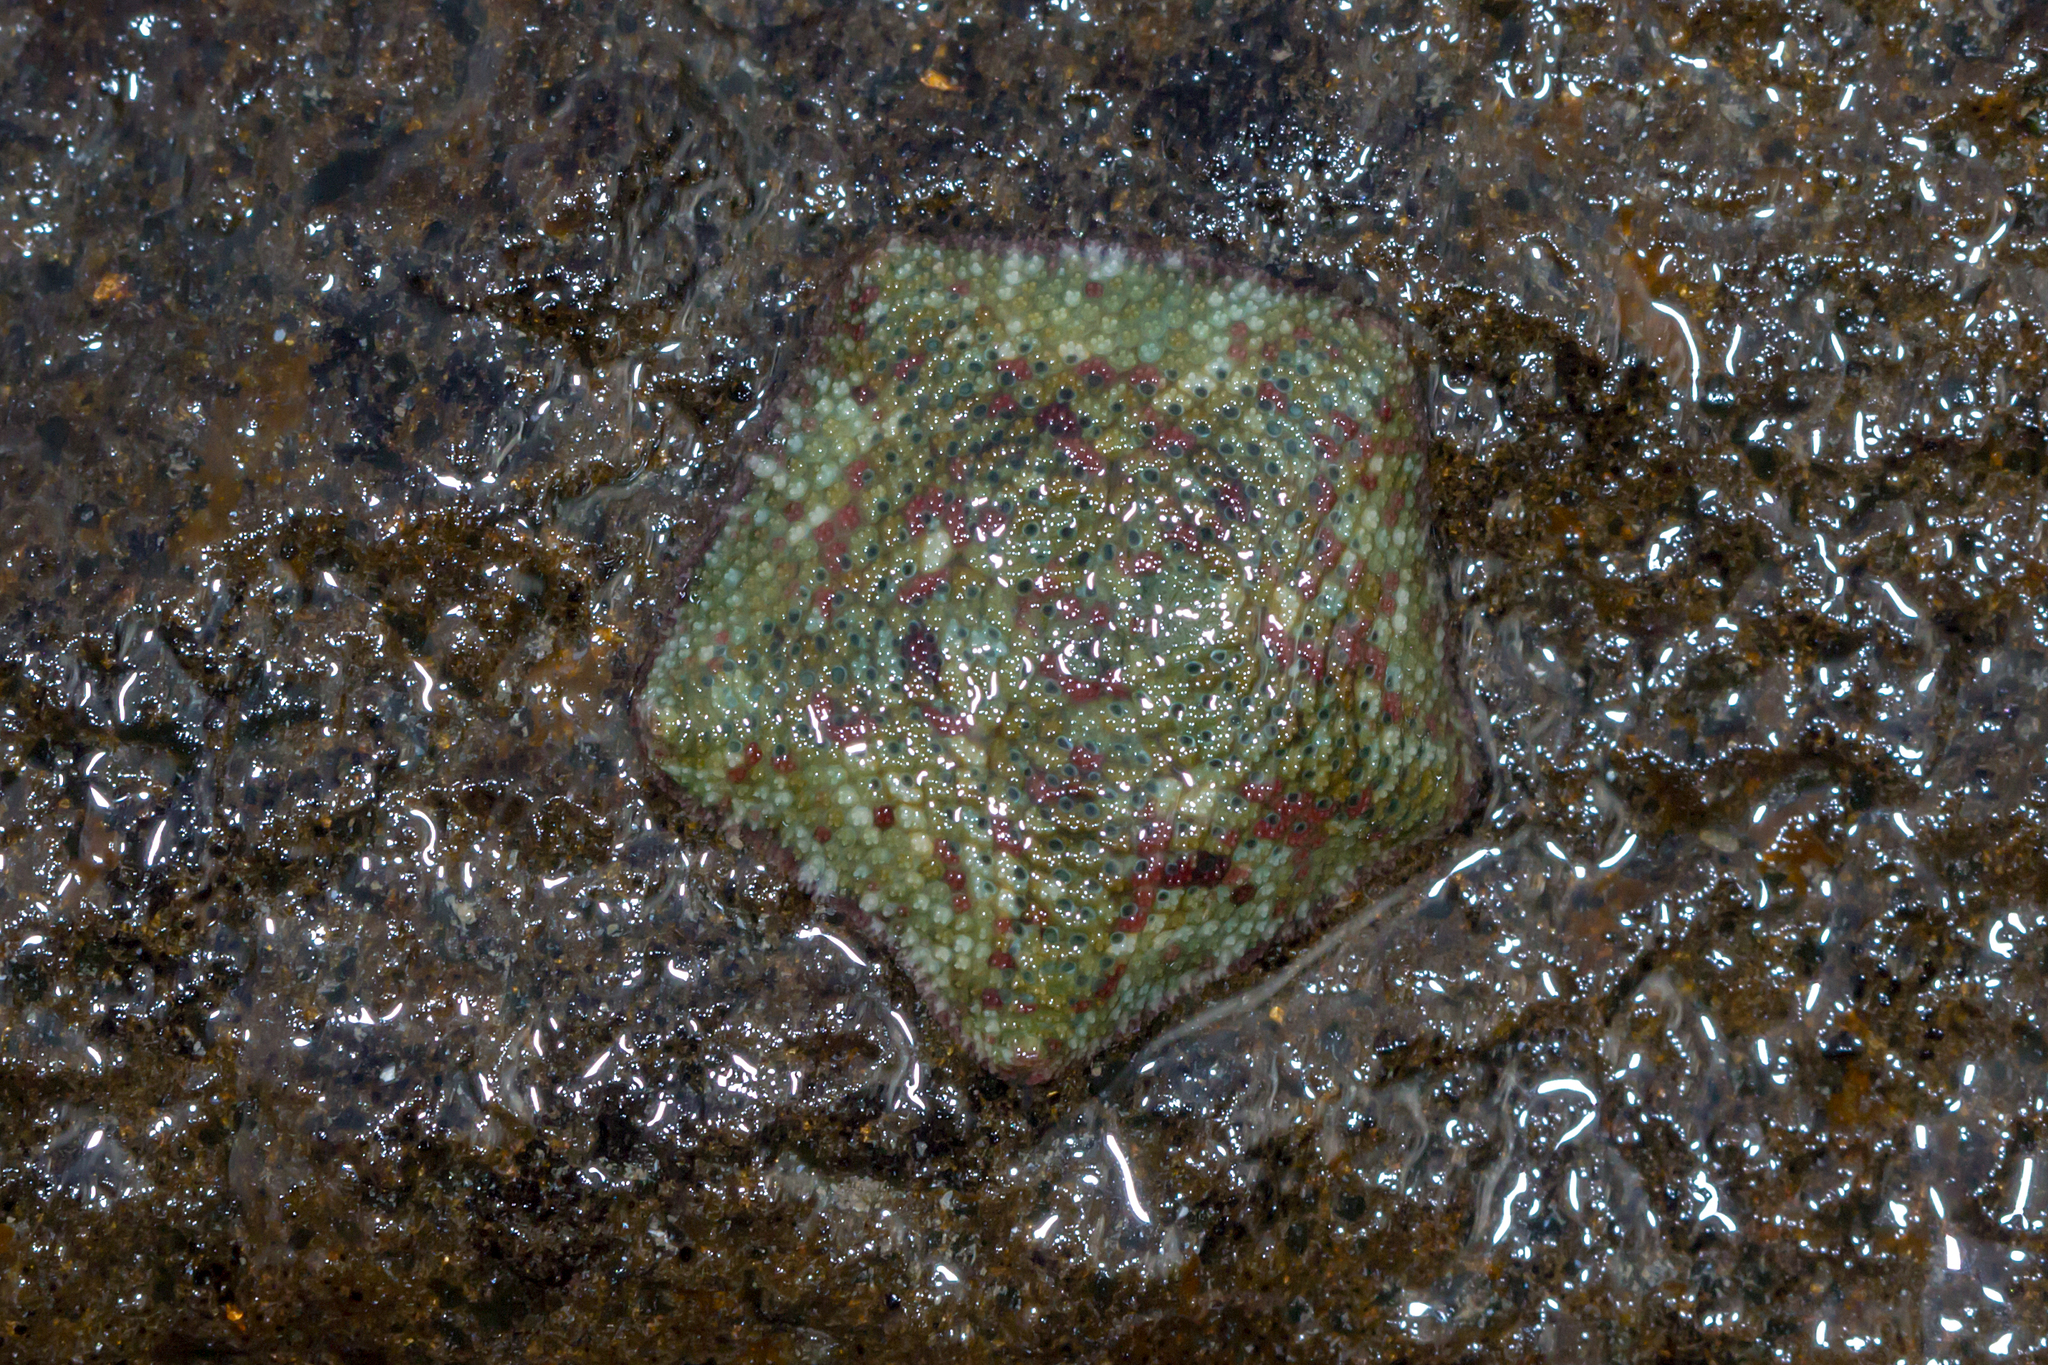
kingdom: Animalia
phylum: Echinodermata
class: Asteroidea
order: Valvatida
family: Asterinidae
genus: Parvulastra
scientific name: Parvulastra exigua
